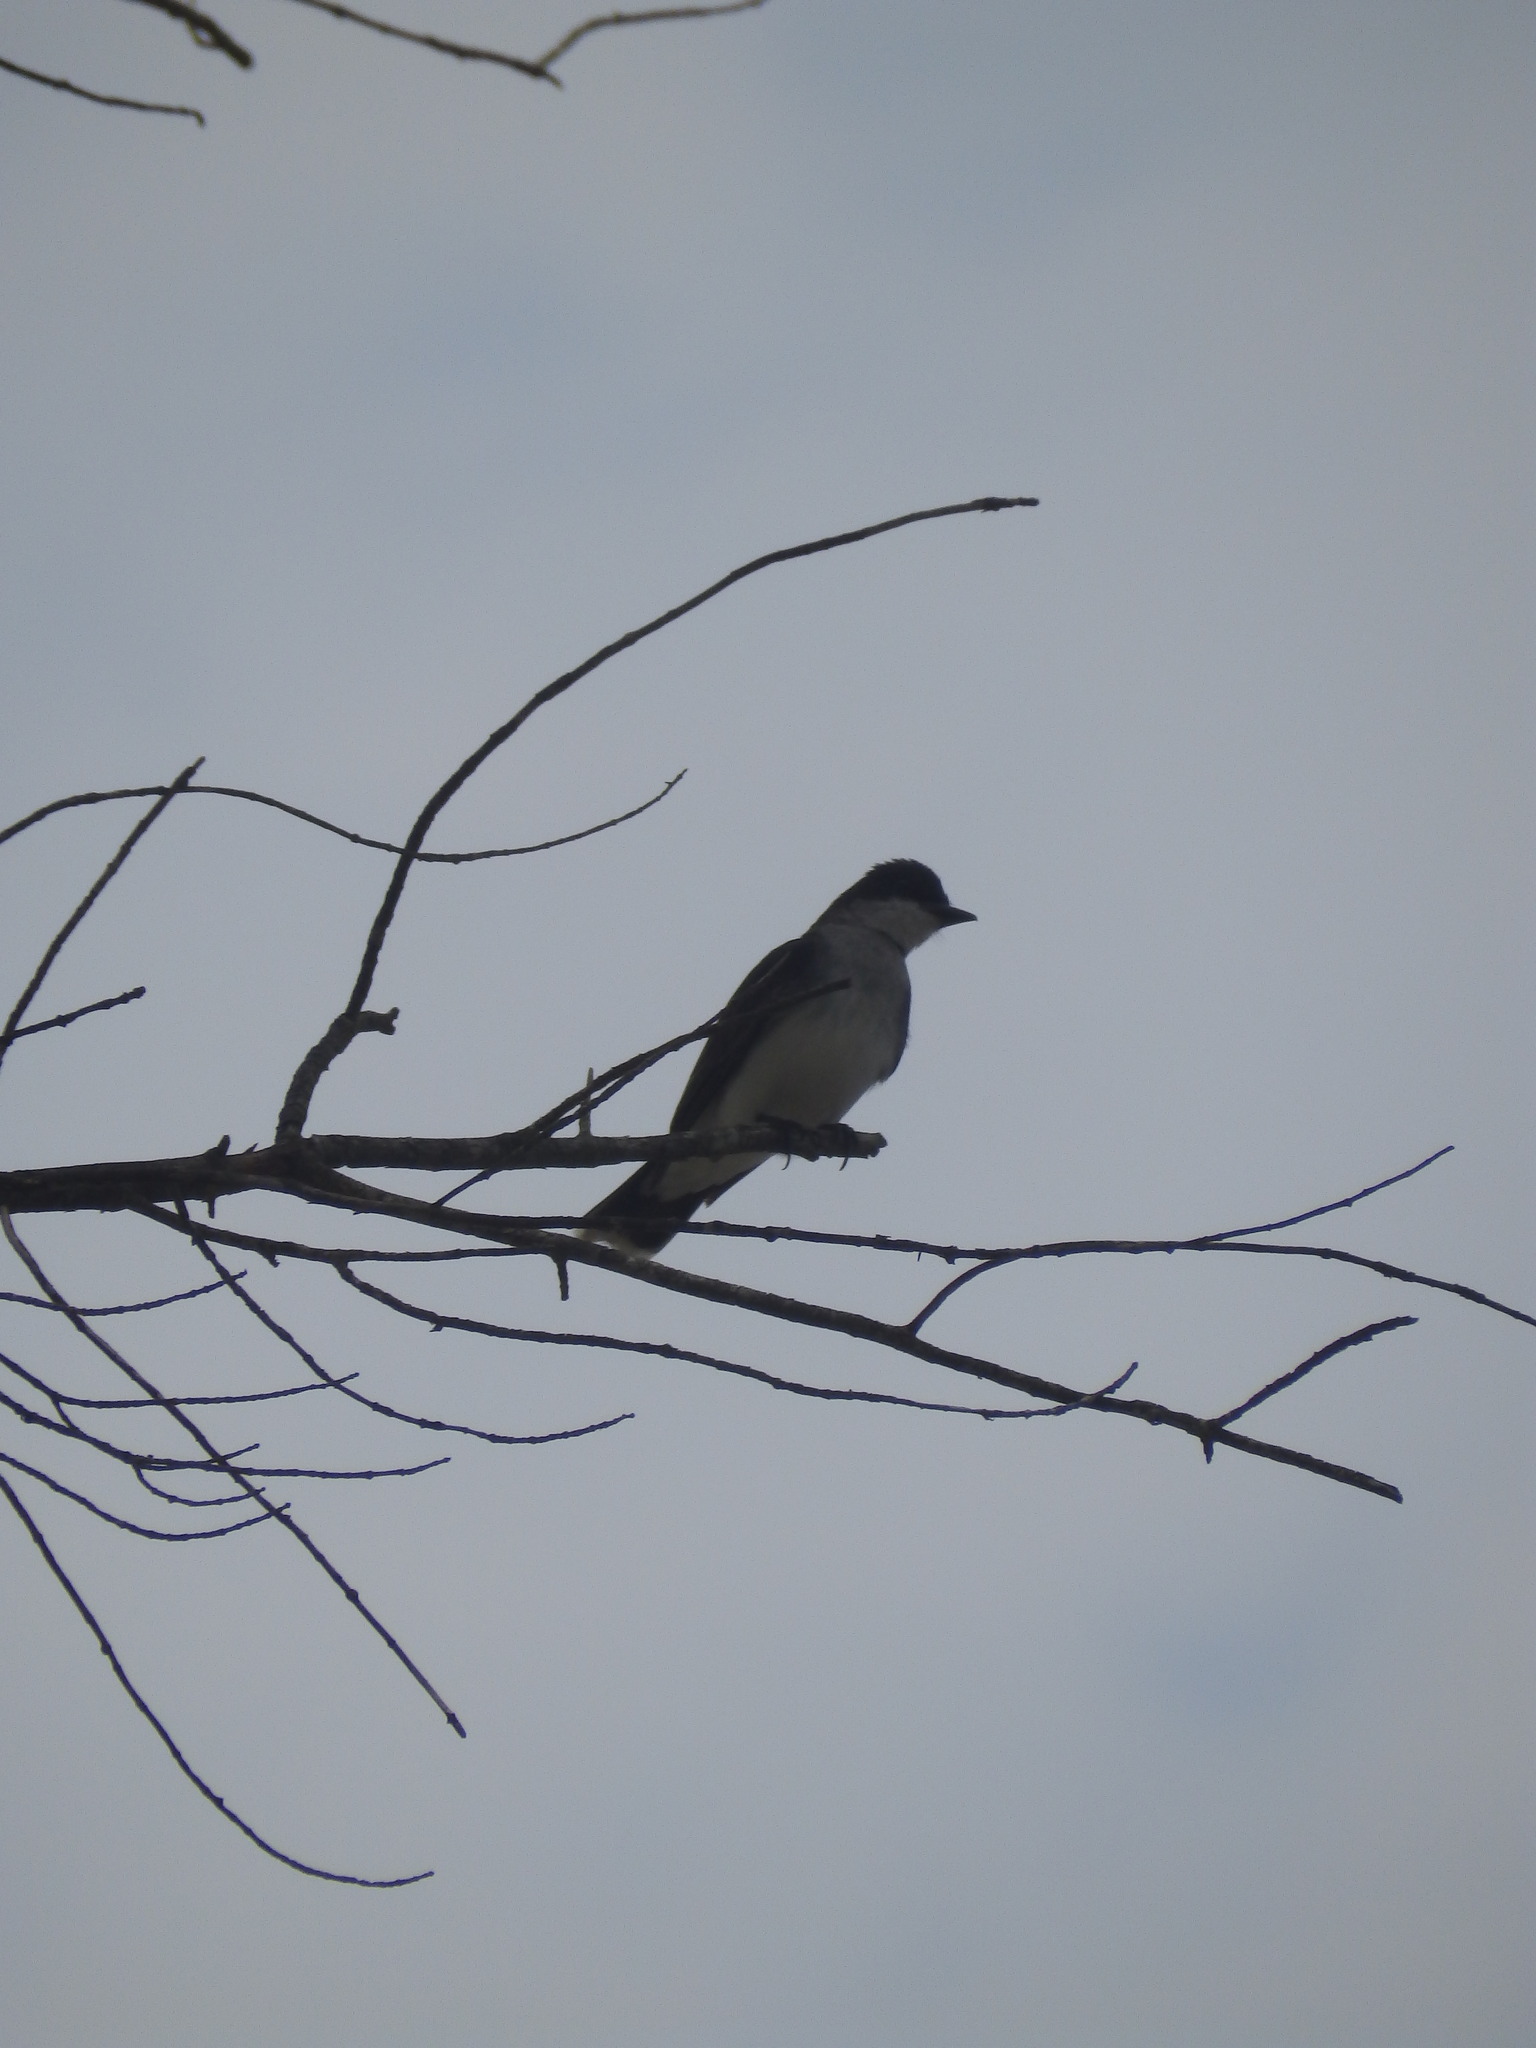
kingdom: Animalia
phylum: Chordata
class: Aves
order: Passeriformes
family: Tyrannidae
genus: Tyrannus
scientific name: Tyrannus tyrannus
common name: Eastern kingbird
